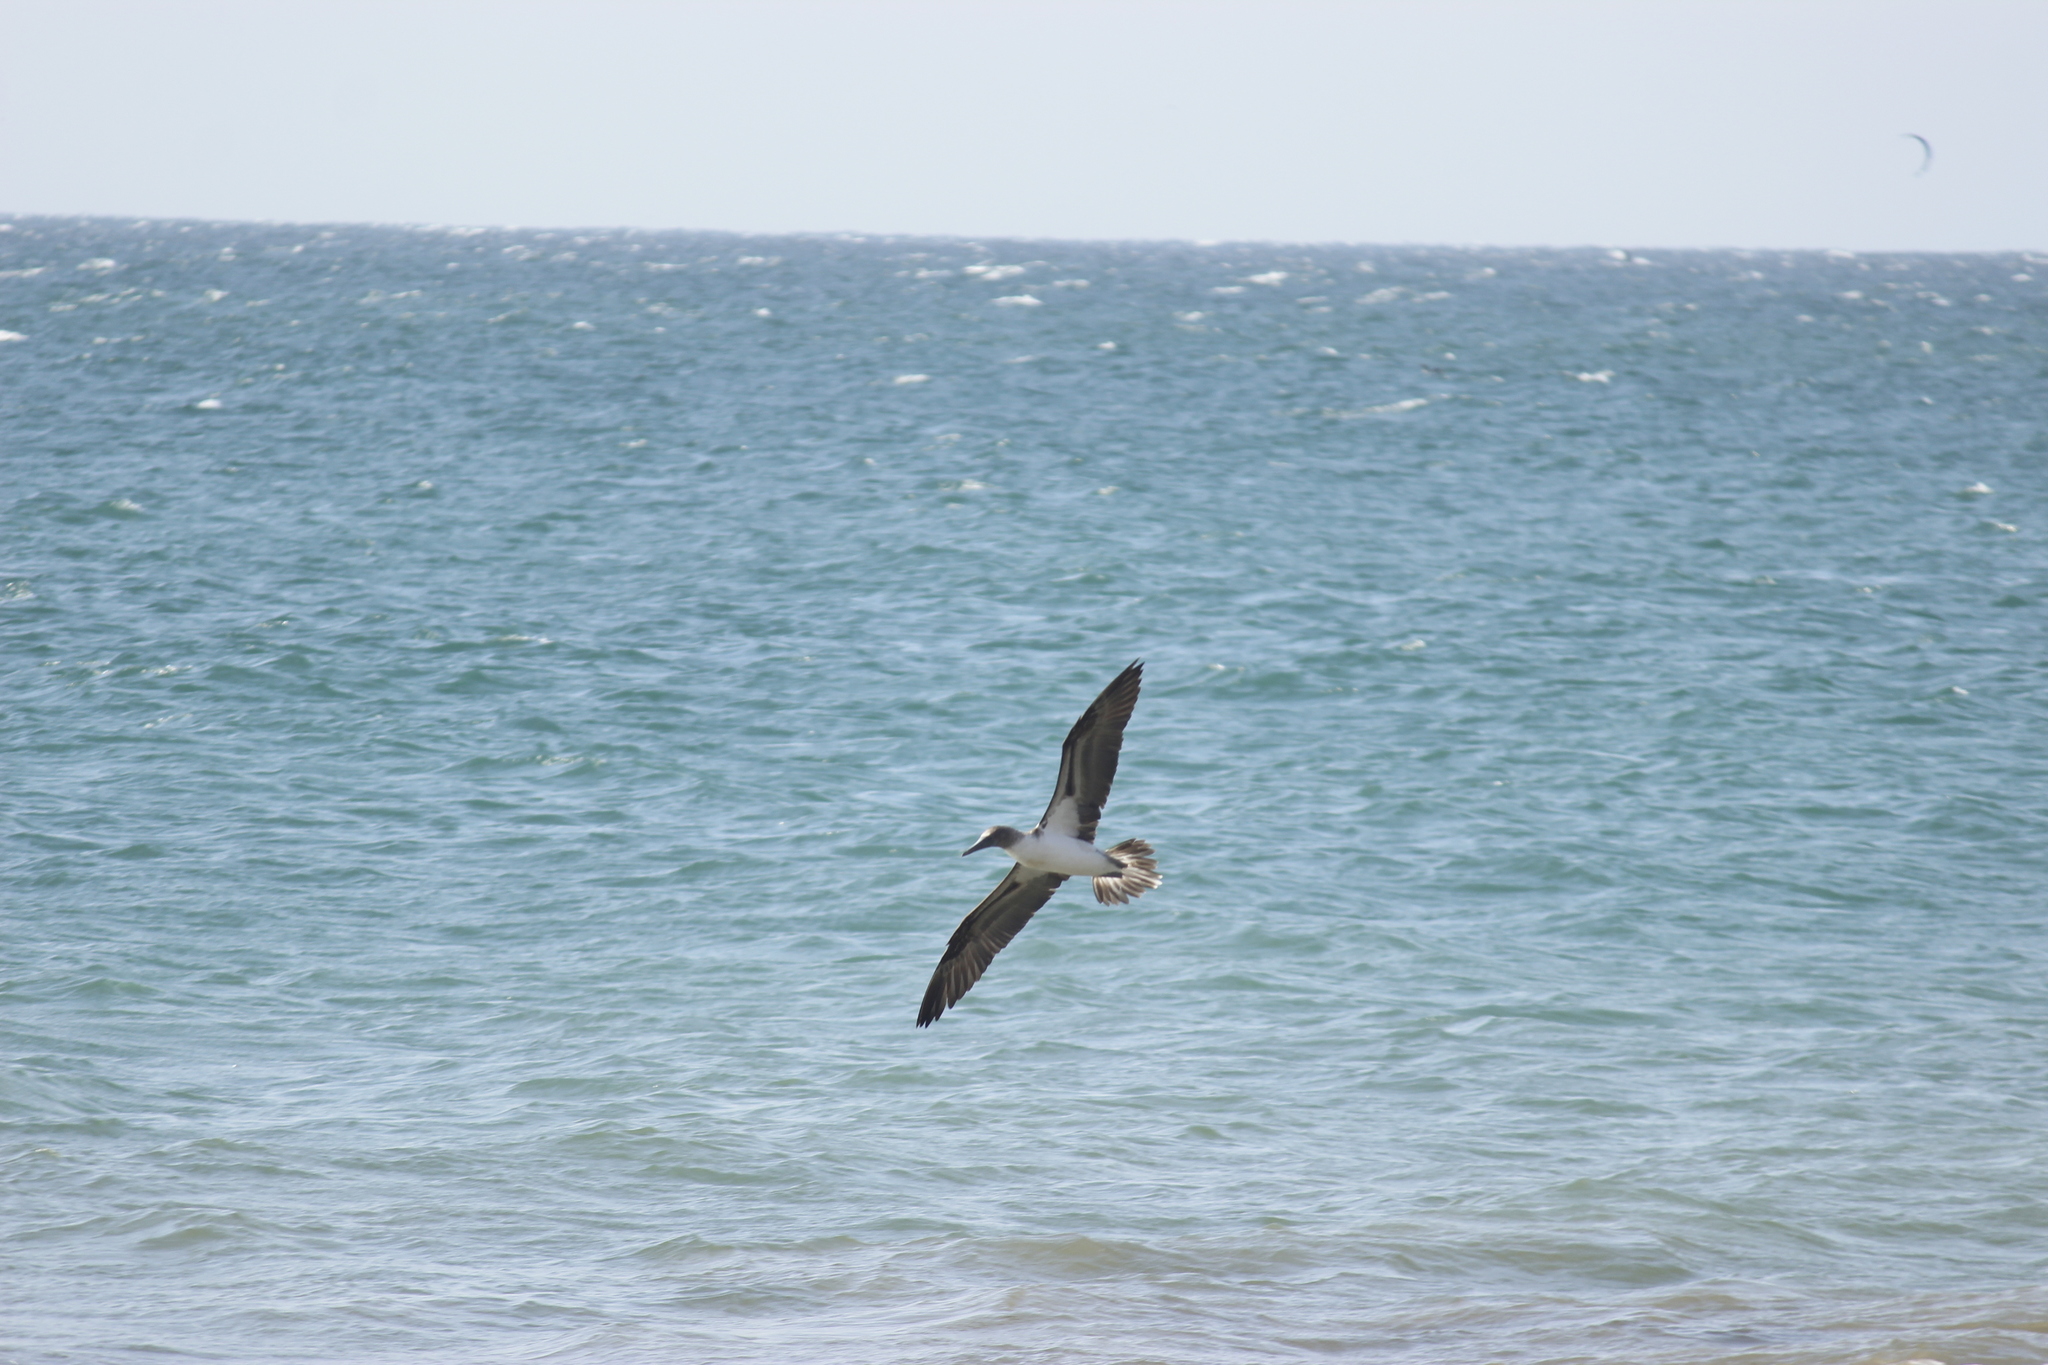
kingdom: Animalia
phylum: Chordata
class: Aves
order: Suliformes
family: Sulidae
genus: Sula
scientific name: Sula nebouxii
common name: Blue-footed booby
